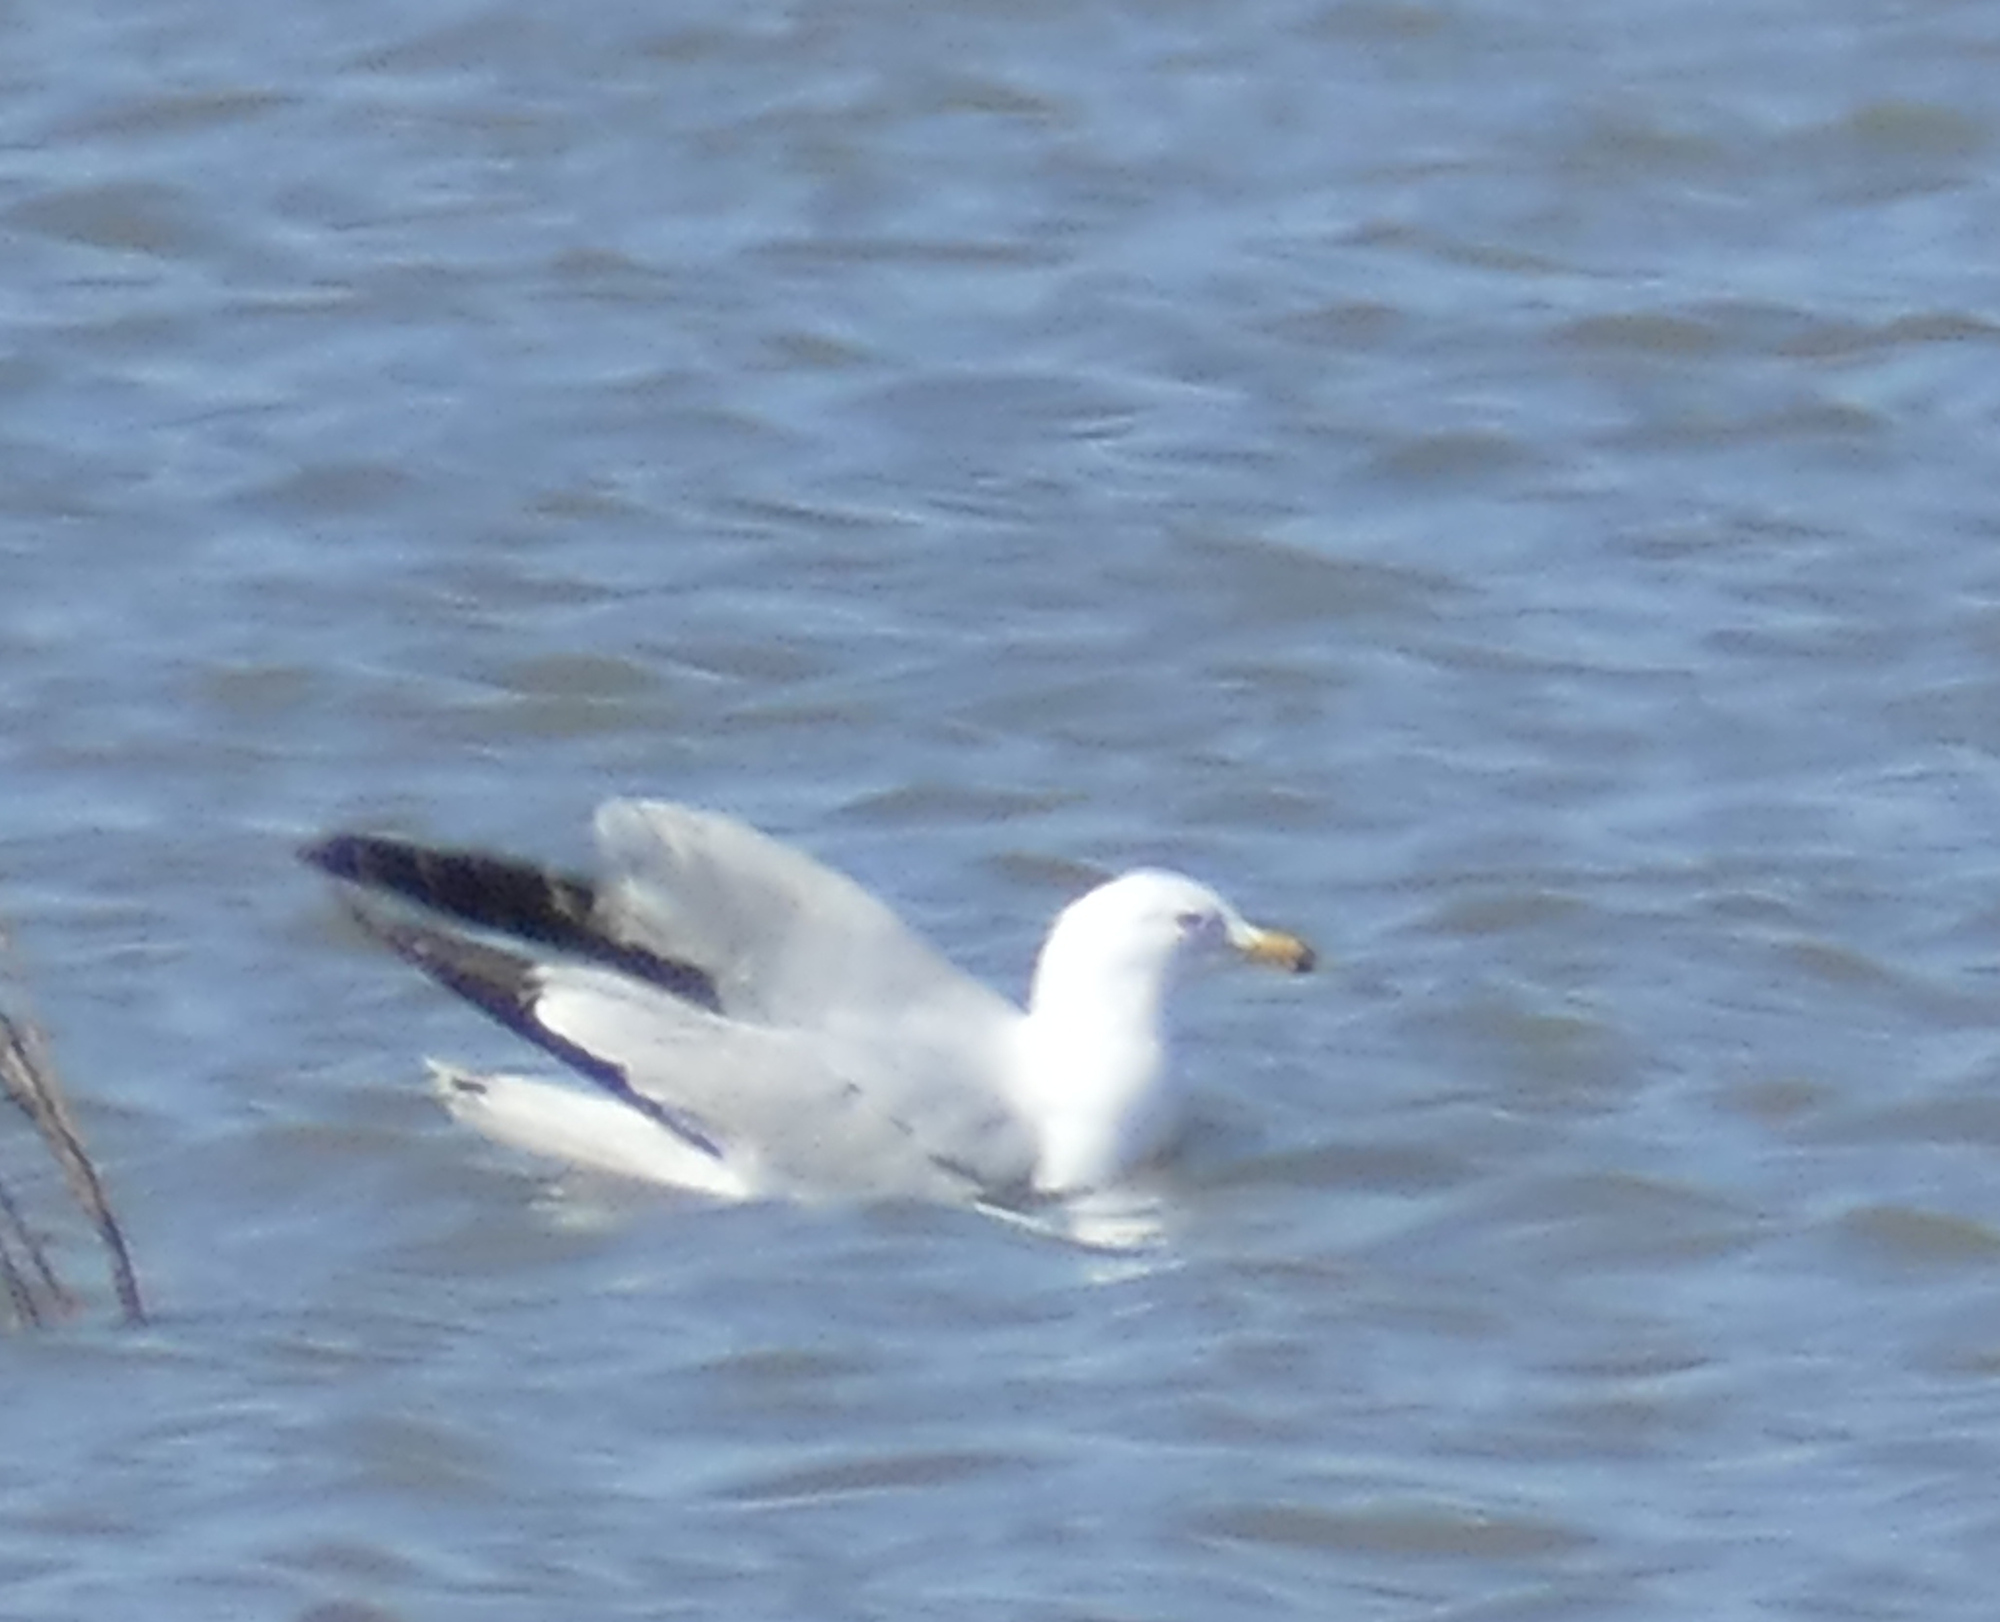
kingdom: Animalia
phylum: Chordata
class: Aves
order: Charadriiformes
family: Laridae
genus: Larus
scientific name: Larus delawarensis
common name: Ring-billed gull
